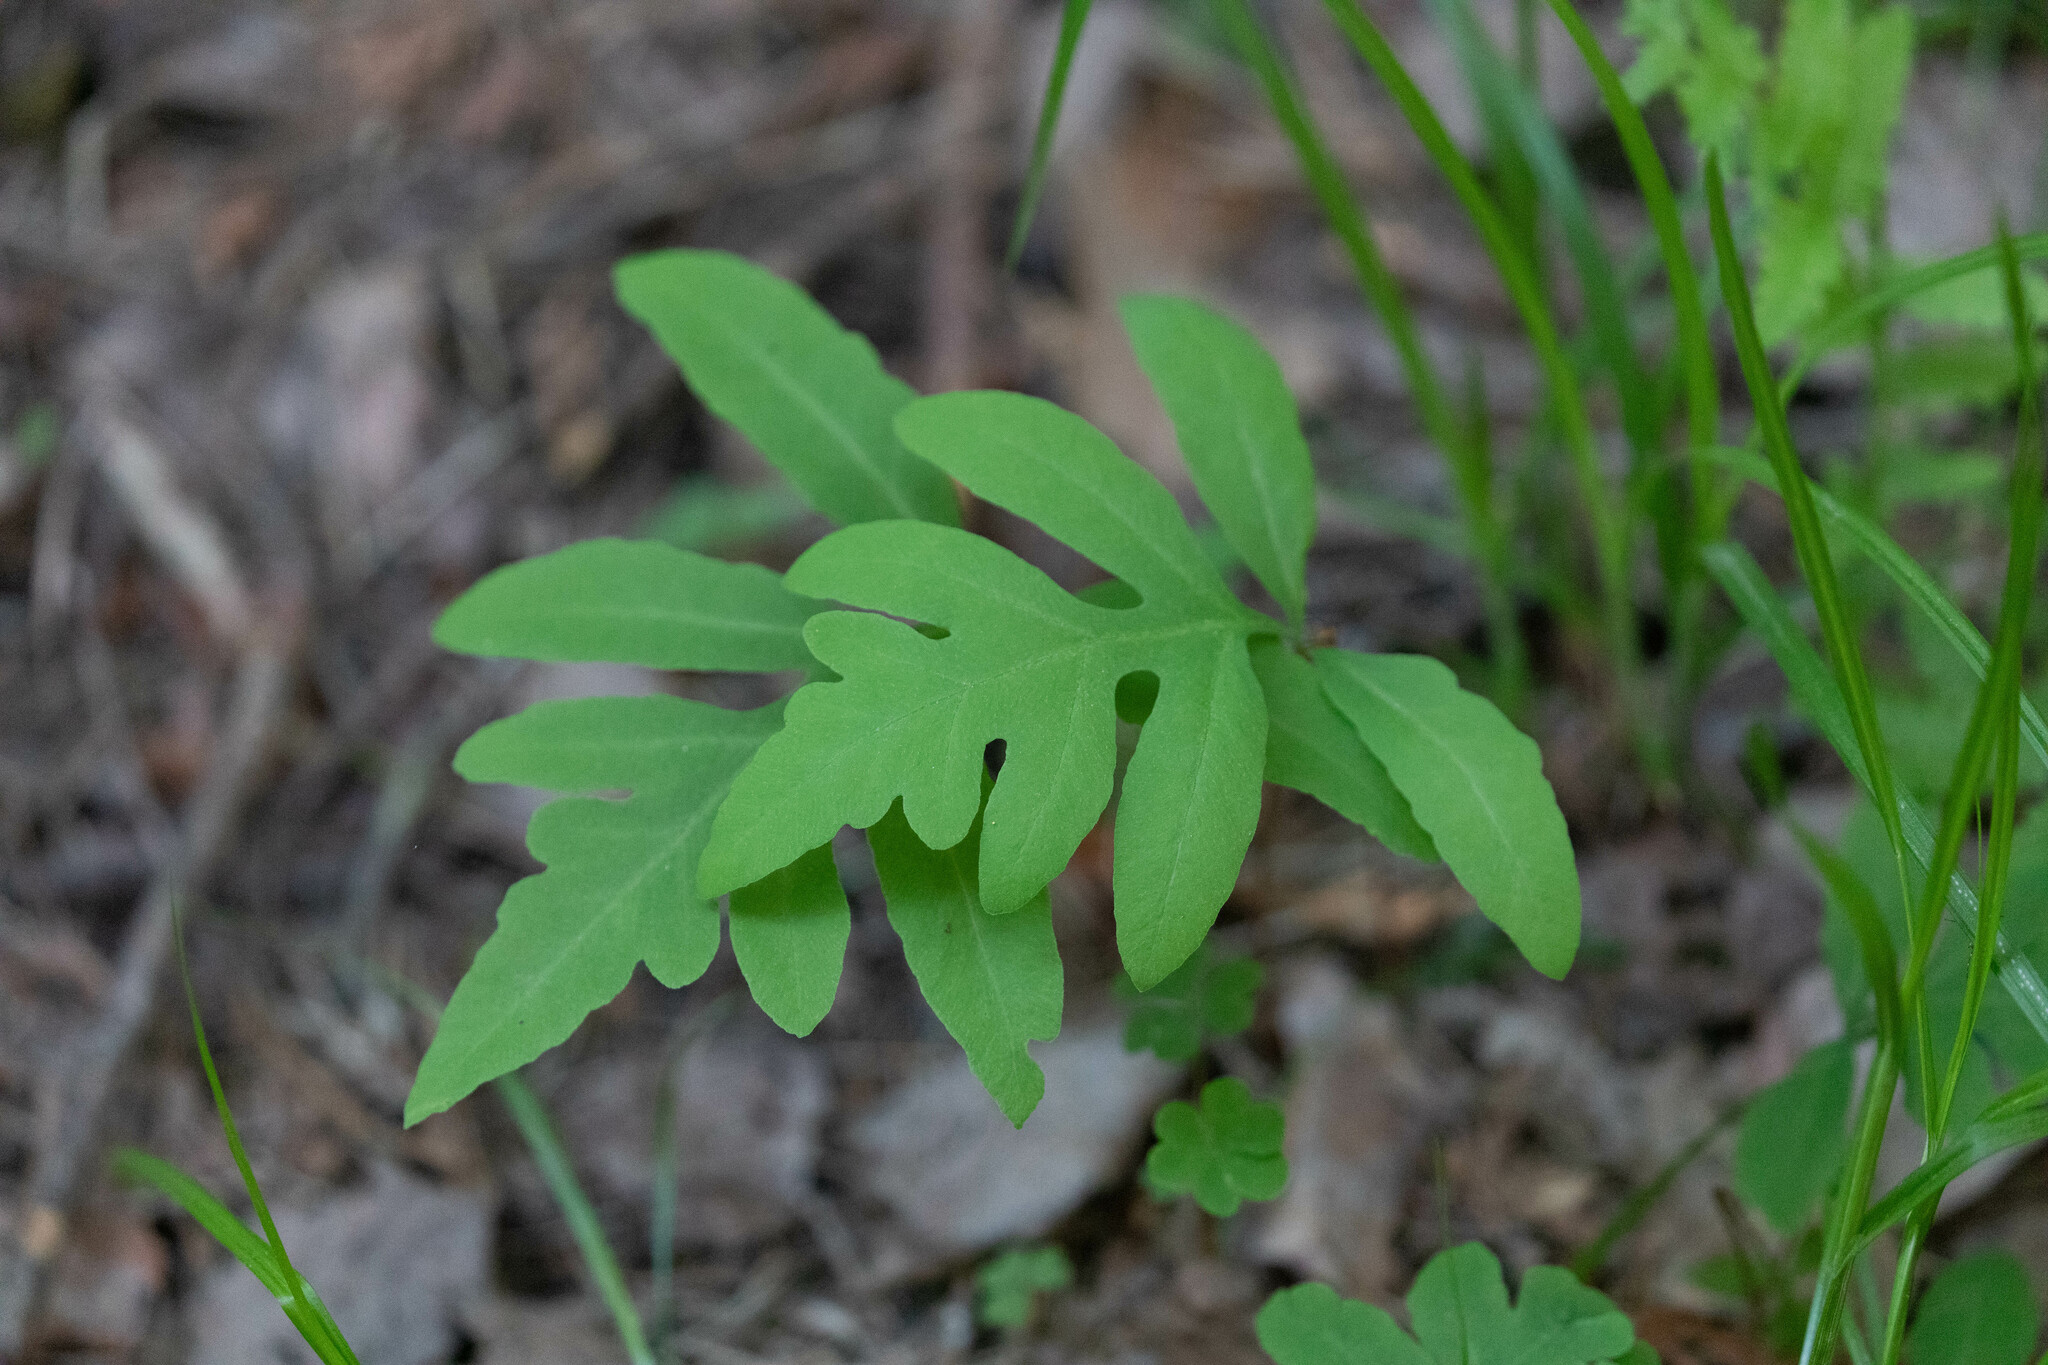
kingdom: Plantae
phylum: Tracheophyta
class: Polypodiopsida
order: Polypodiales
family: Onocleaceae
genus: Onoclea
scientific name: Onoclea sensibilis
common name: Sensitive fern
